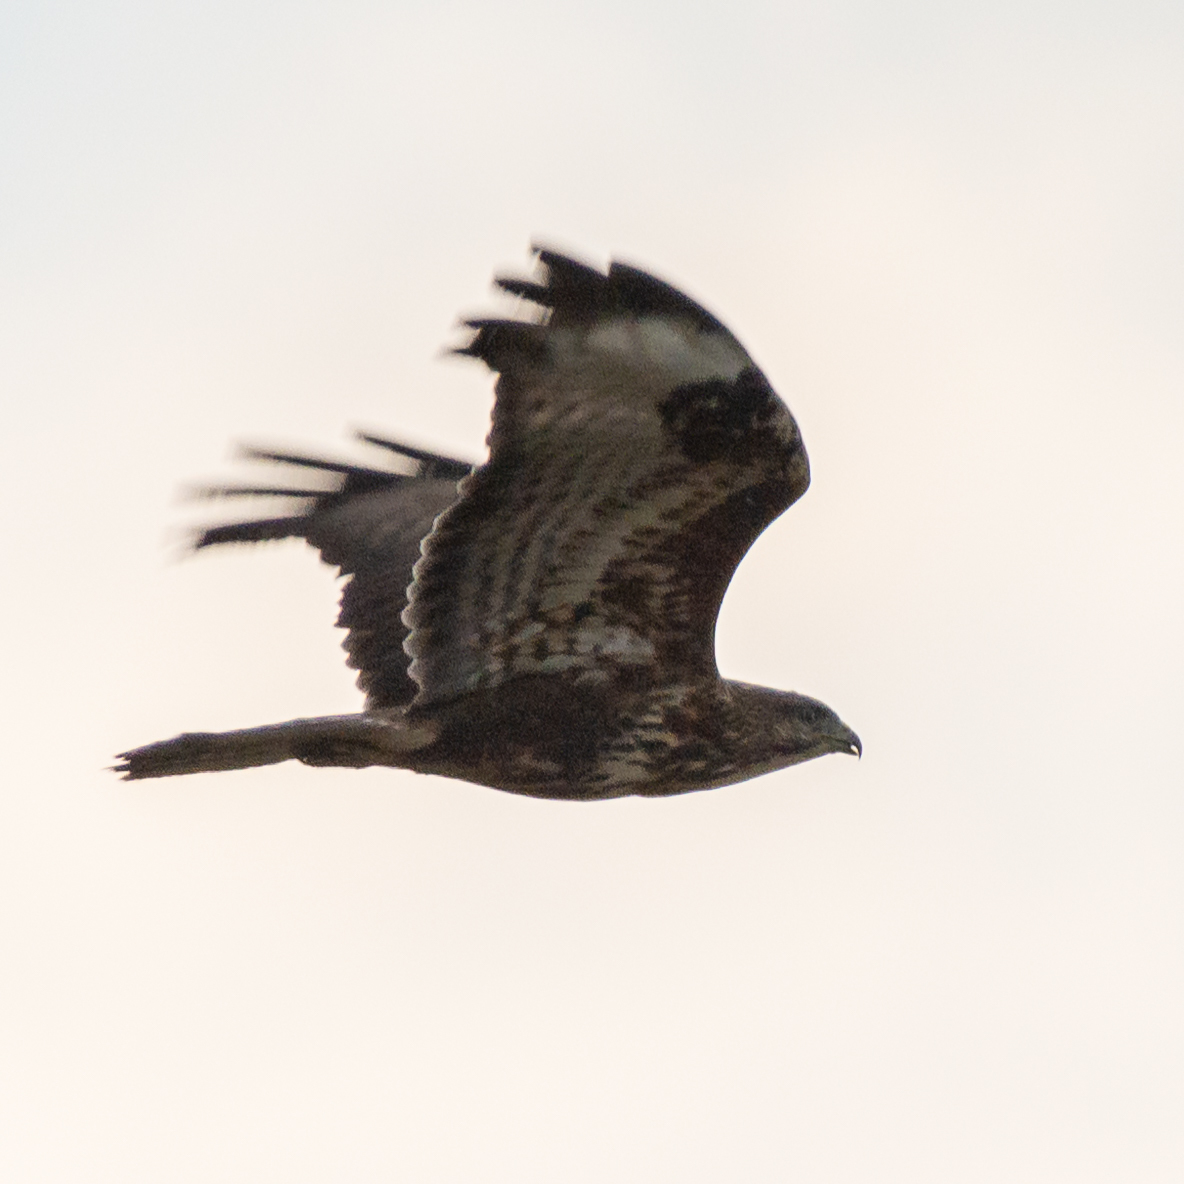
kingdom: Animalia
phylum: Chordata
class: Aves
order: Accipitriformes
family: Accipitridae
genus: Buteo
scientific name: Buteo buteo
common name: Common buzzard
